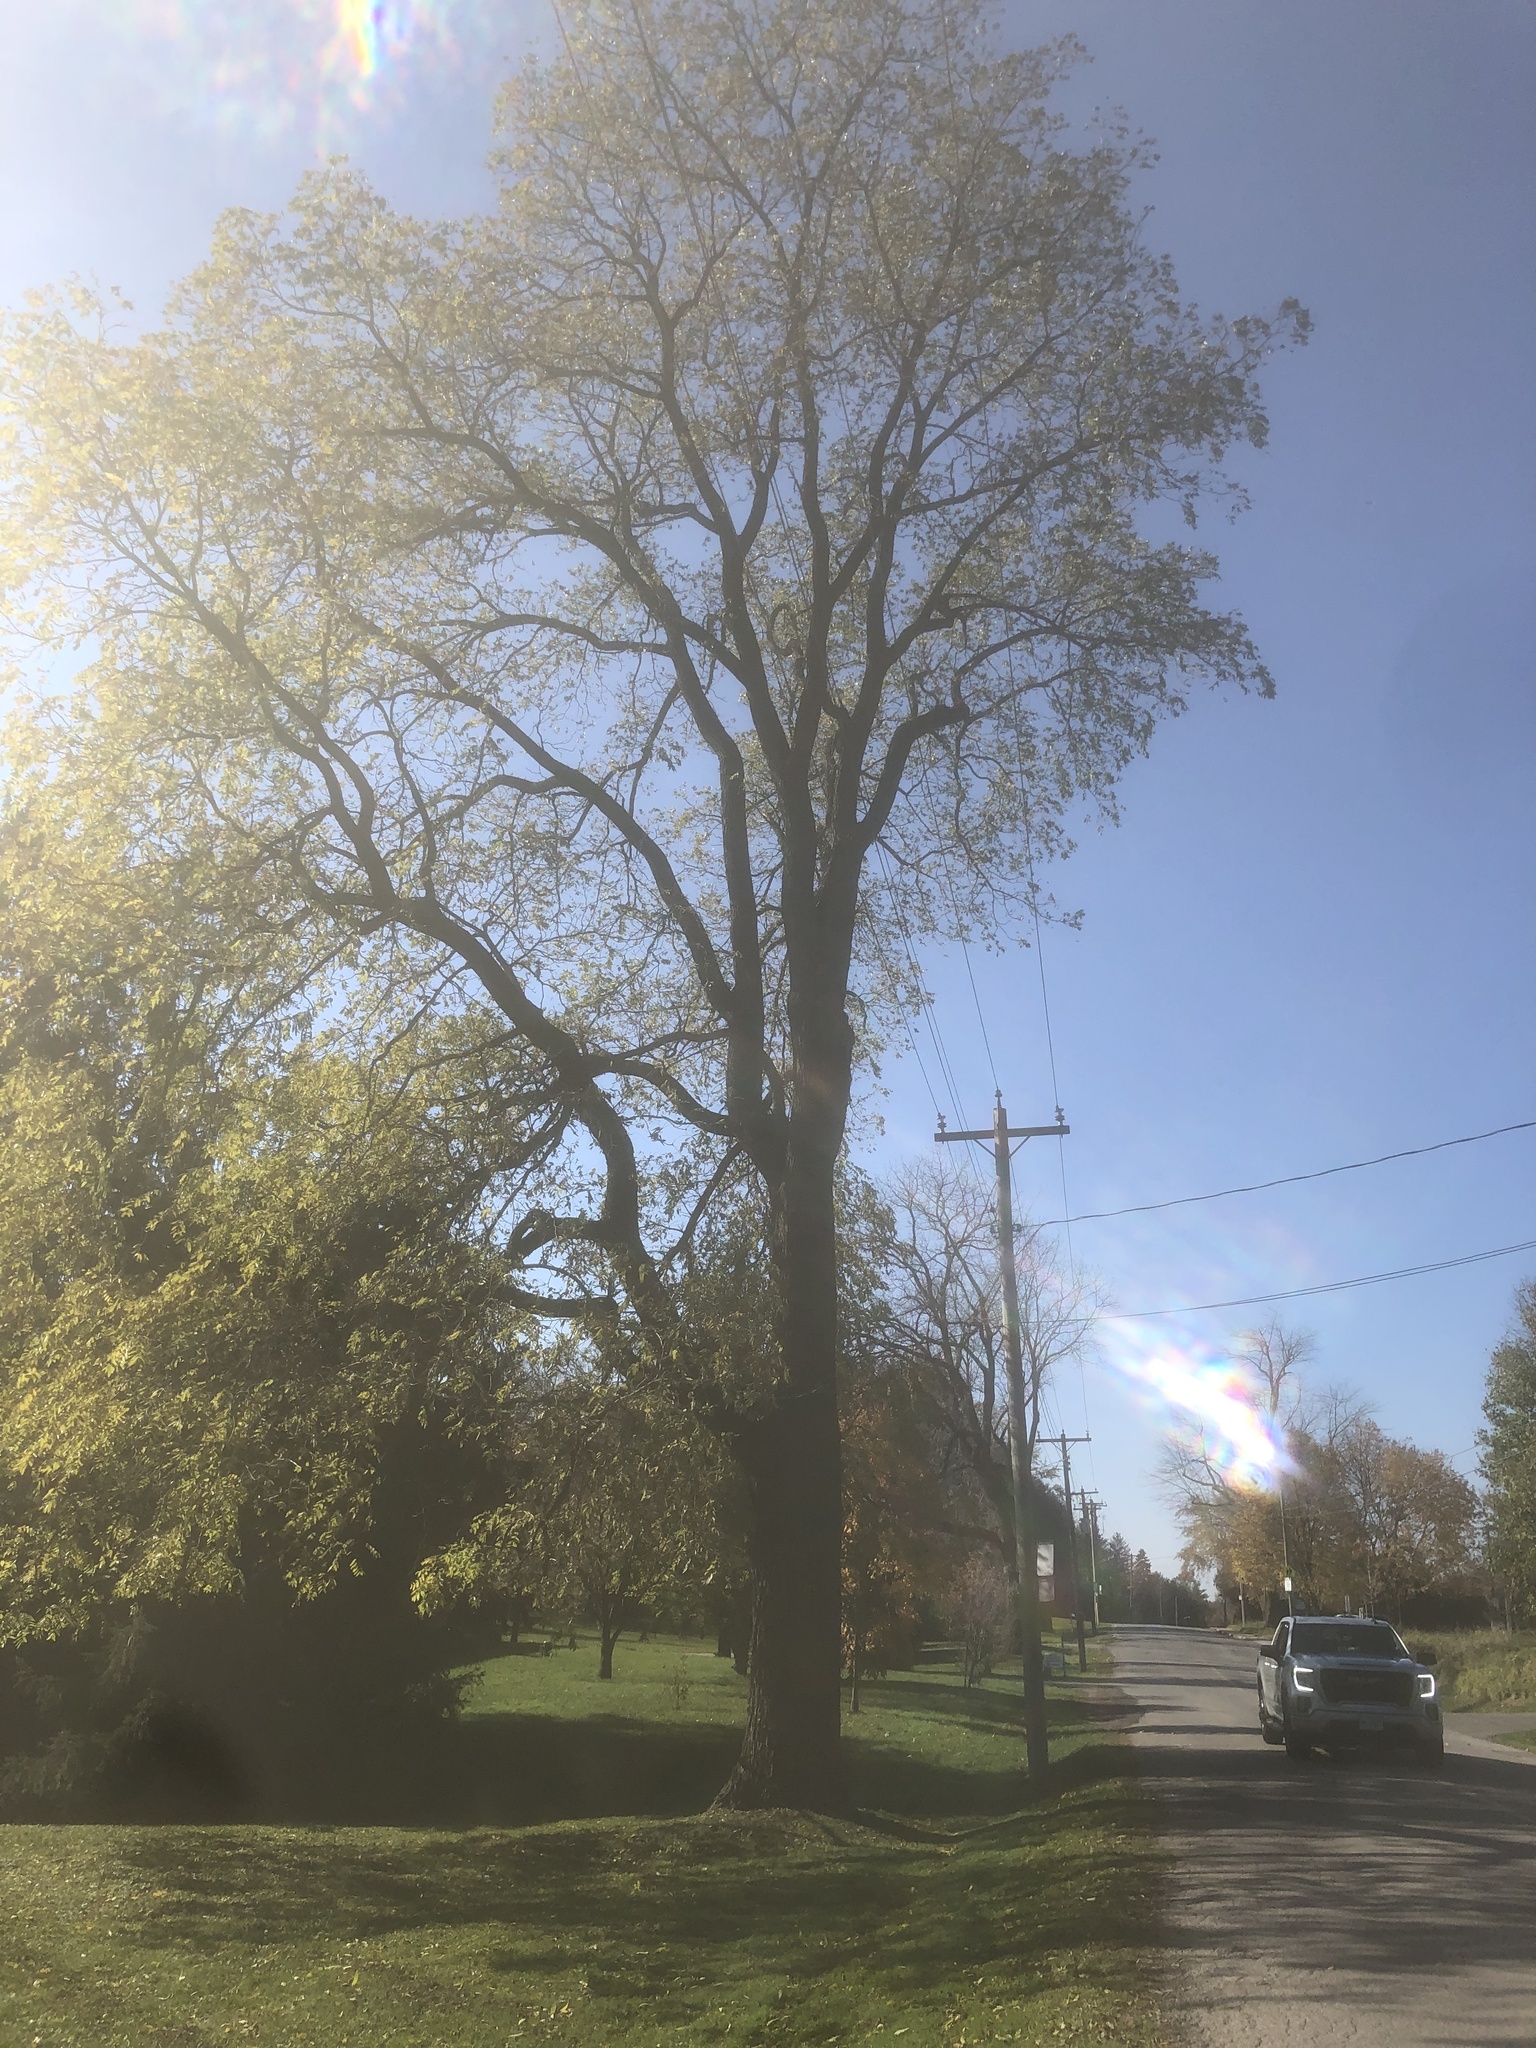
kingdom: Plantae
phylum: Tracheophyta
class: Magnoliopsida
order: Fagales
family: Juglandaceae
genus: Juglans
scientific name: Juglans nigra
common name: Black walnut
